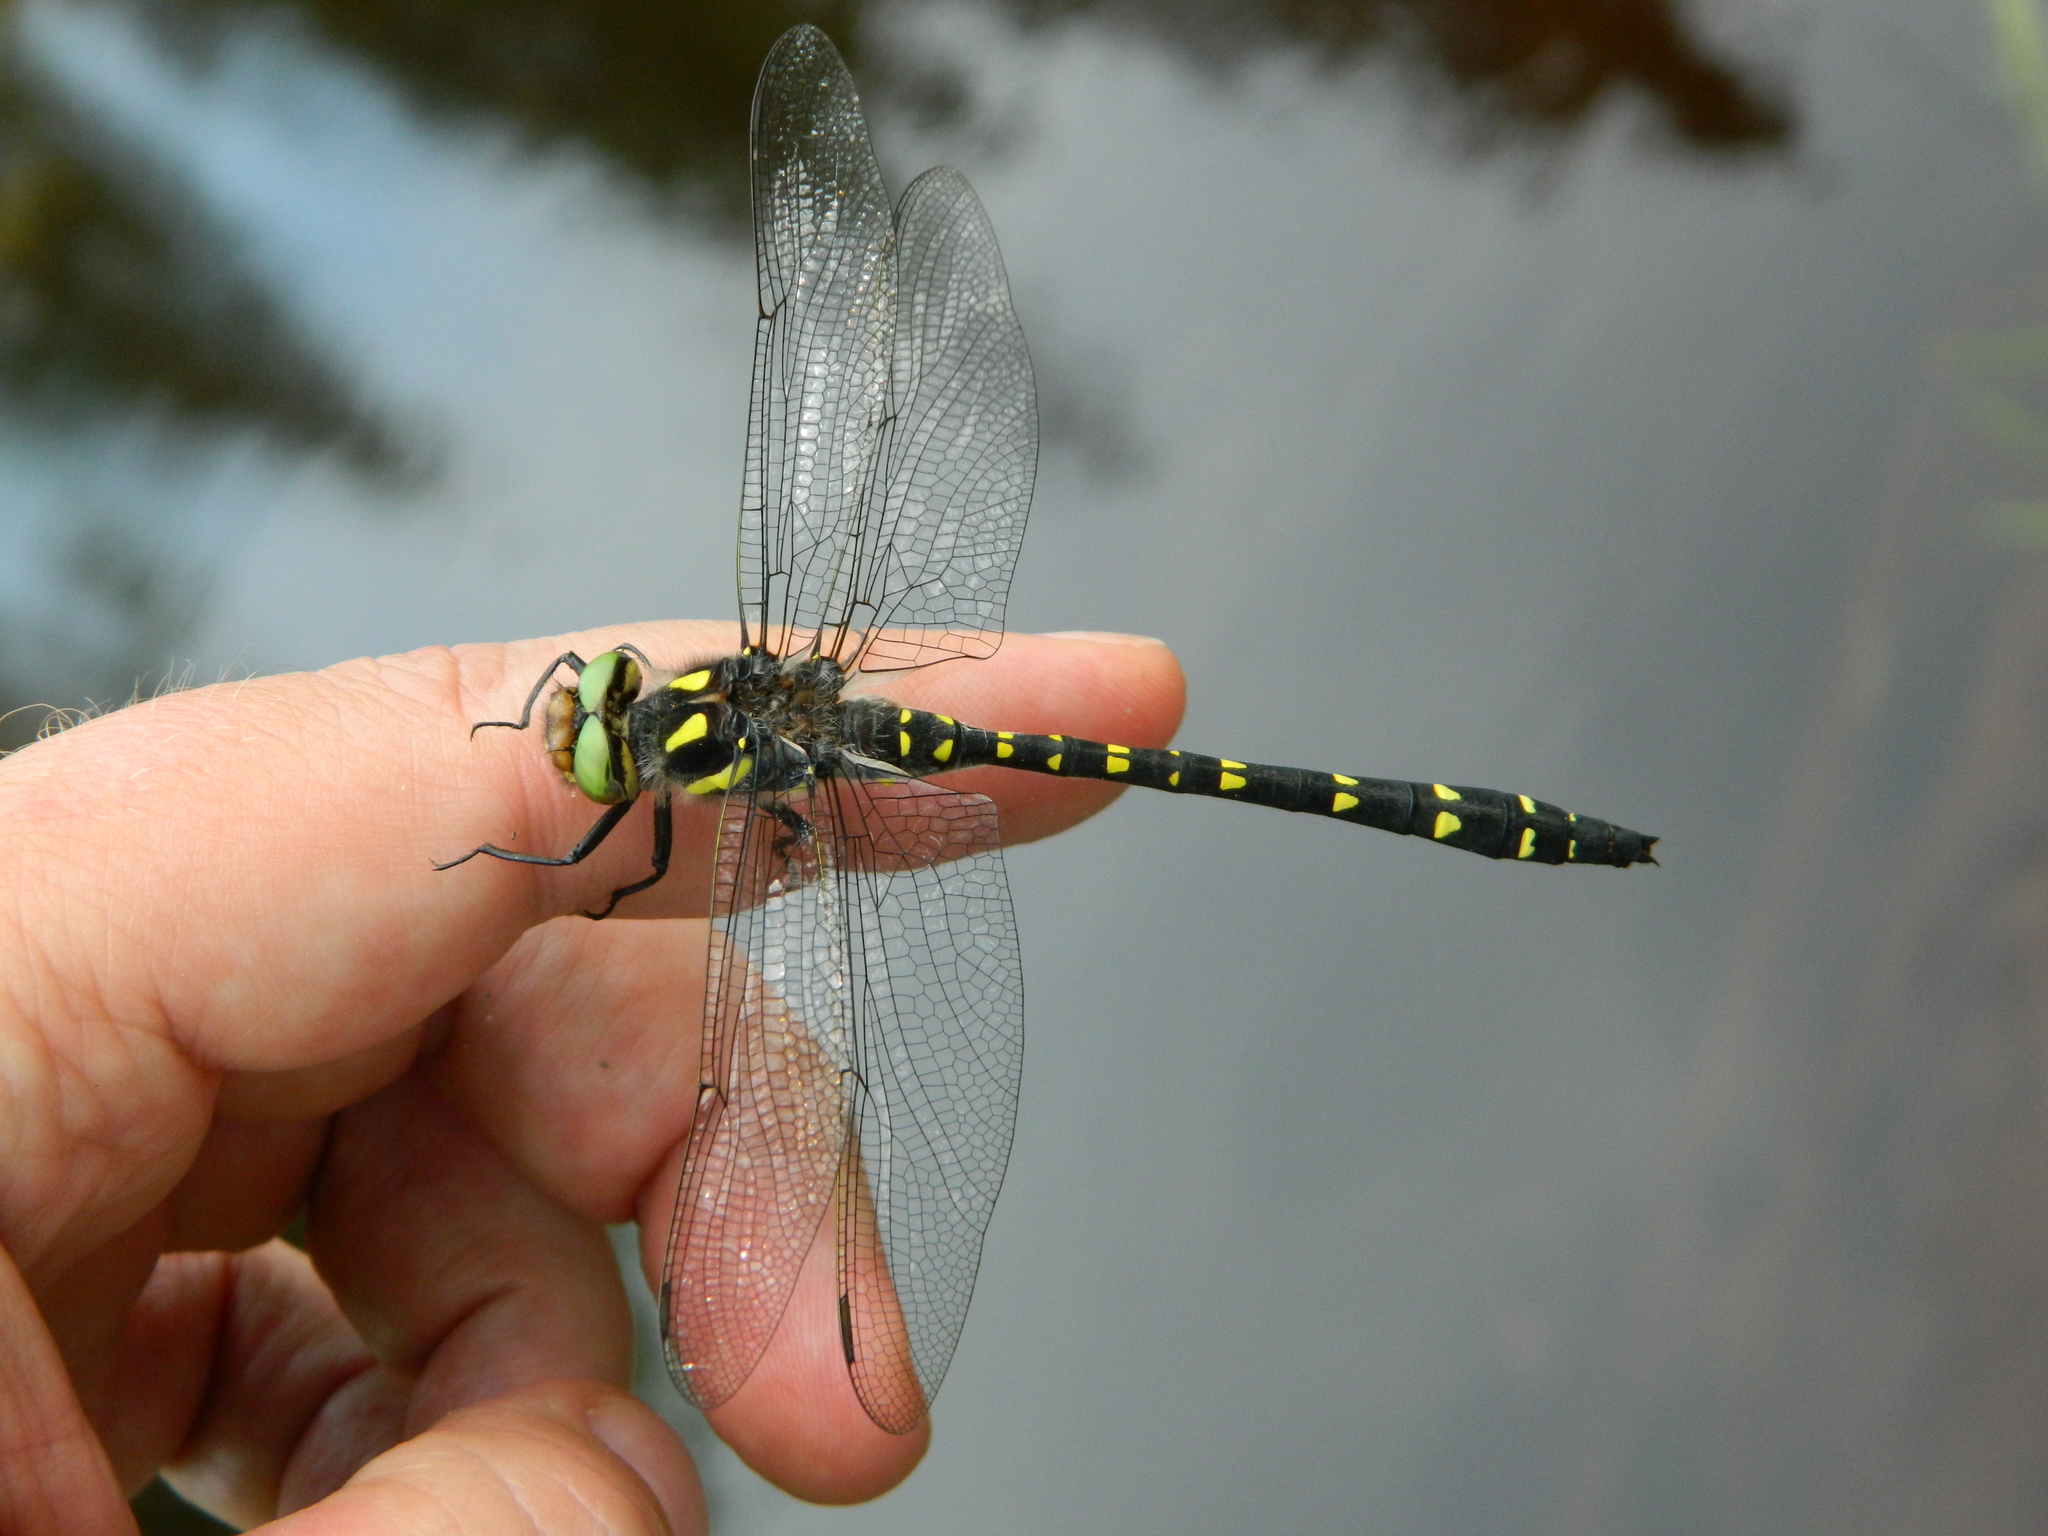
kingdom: Animalia
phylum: Arthropoda
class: Insecta
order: Odonata
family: Cordulegastridae
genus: Cordulegaster
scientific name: Cordulegaster maculata
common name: Twin-spotted spiketail
